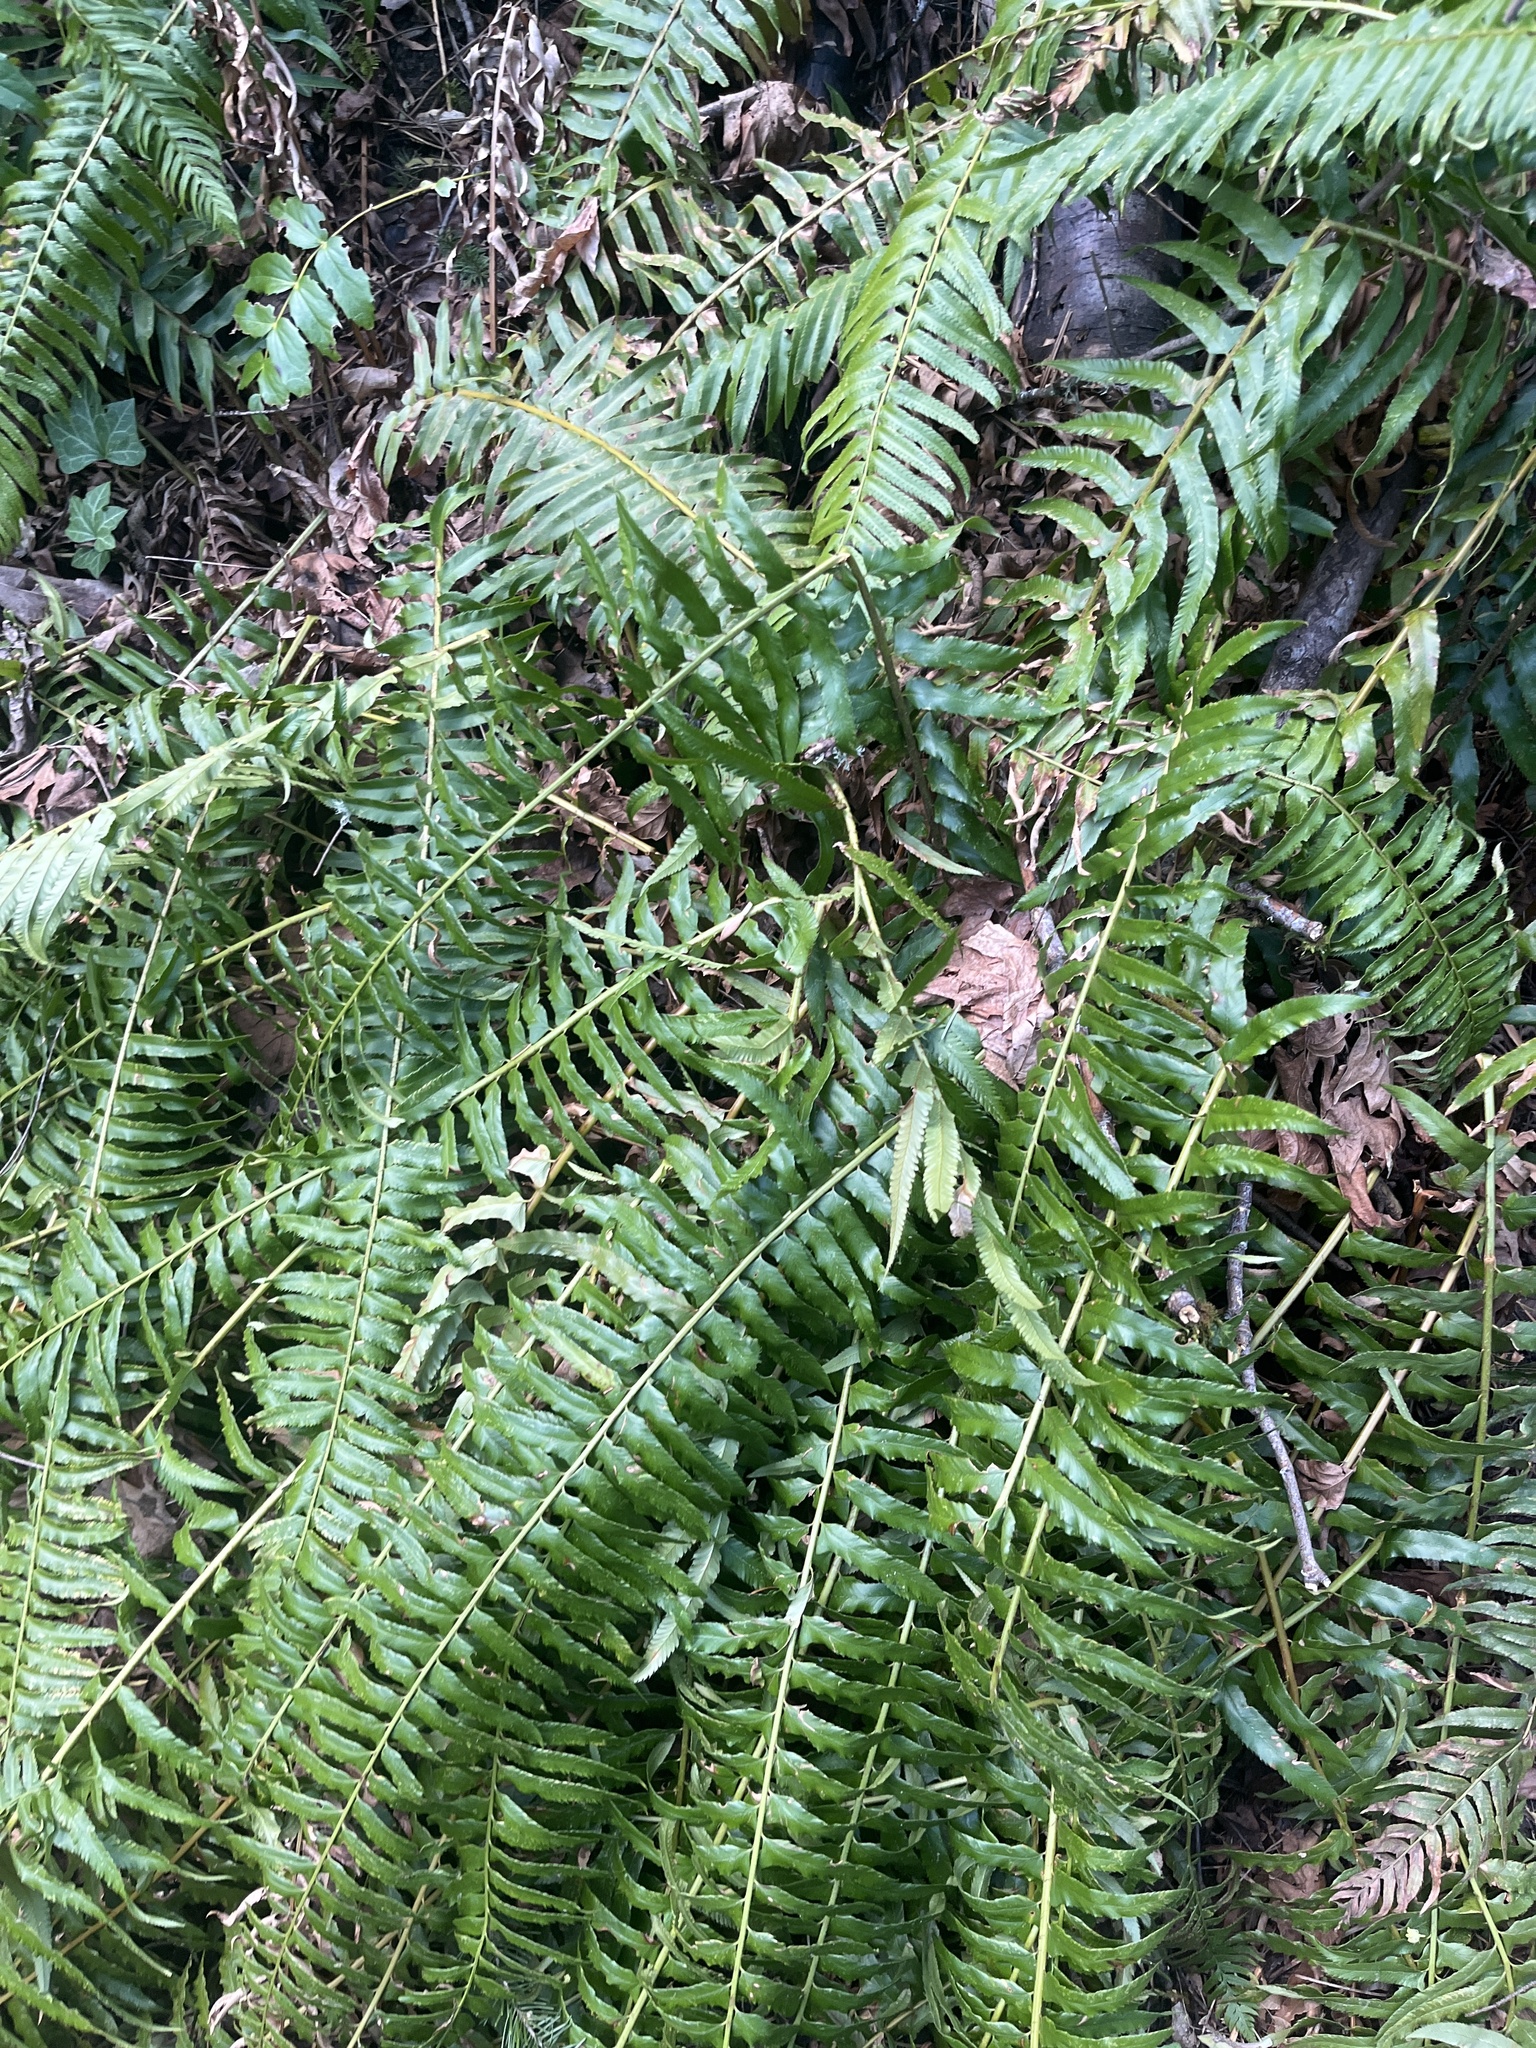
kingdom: Plantae
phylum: Tracheophyta
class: Polypodiopsida
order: Polypodiales
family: Dryopteridaceae
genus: Polystichum
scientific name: Polystichum munitum
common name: Western sword-fern
